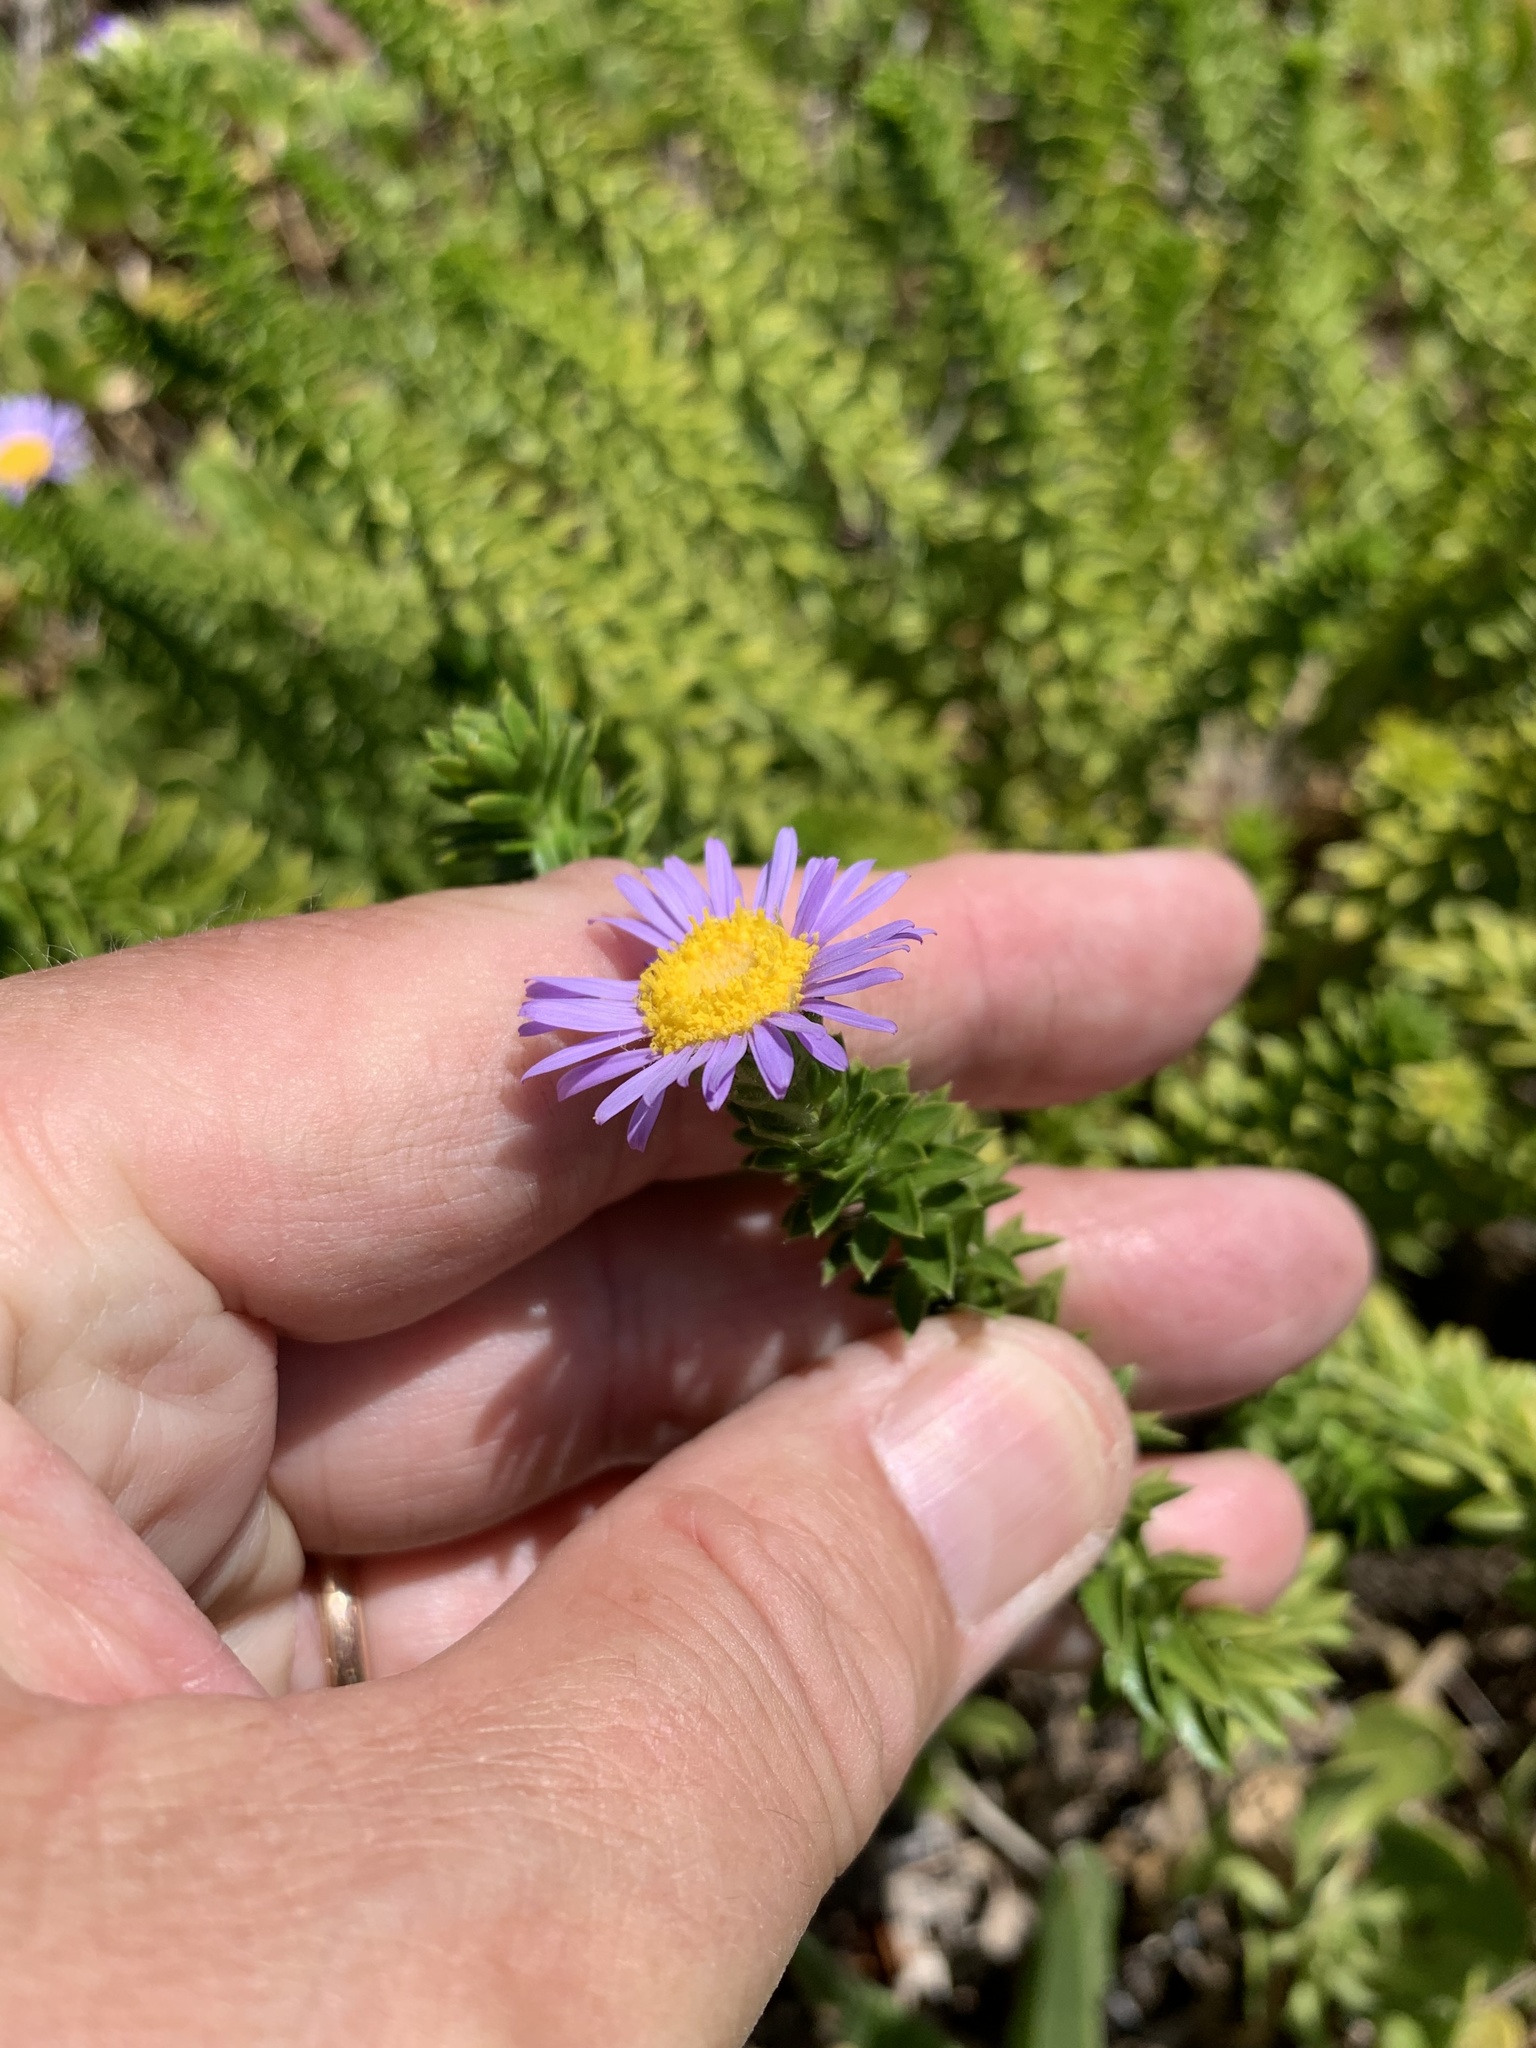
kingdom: Plantae
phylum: Tracheophyta
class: Magnoliopsida
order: Asterales
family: Asteraceae
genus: Felicia
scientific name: Felicia echinata
